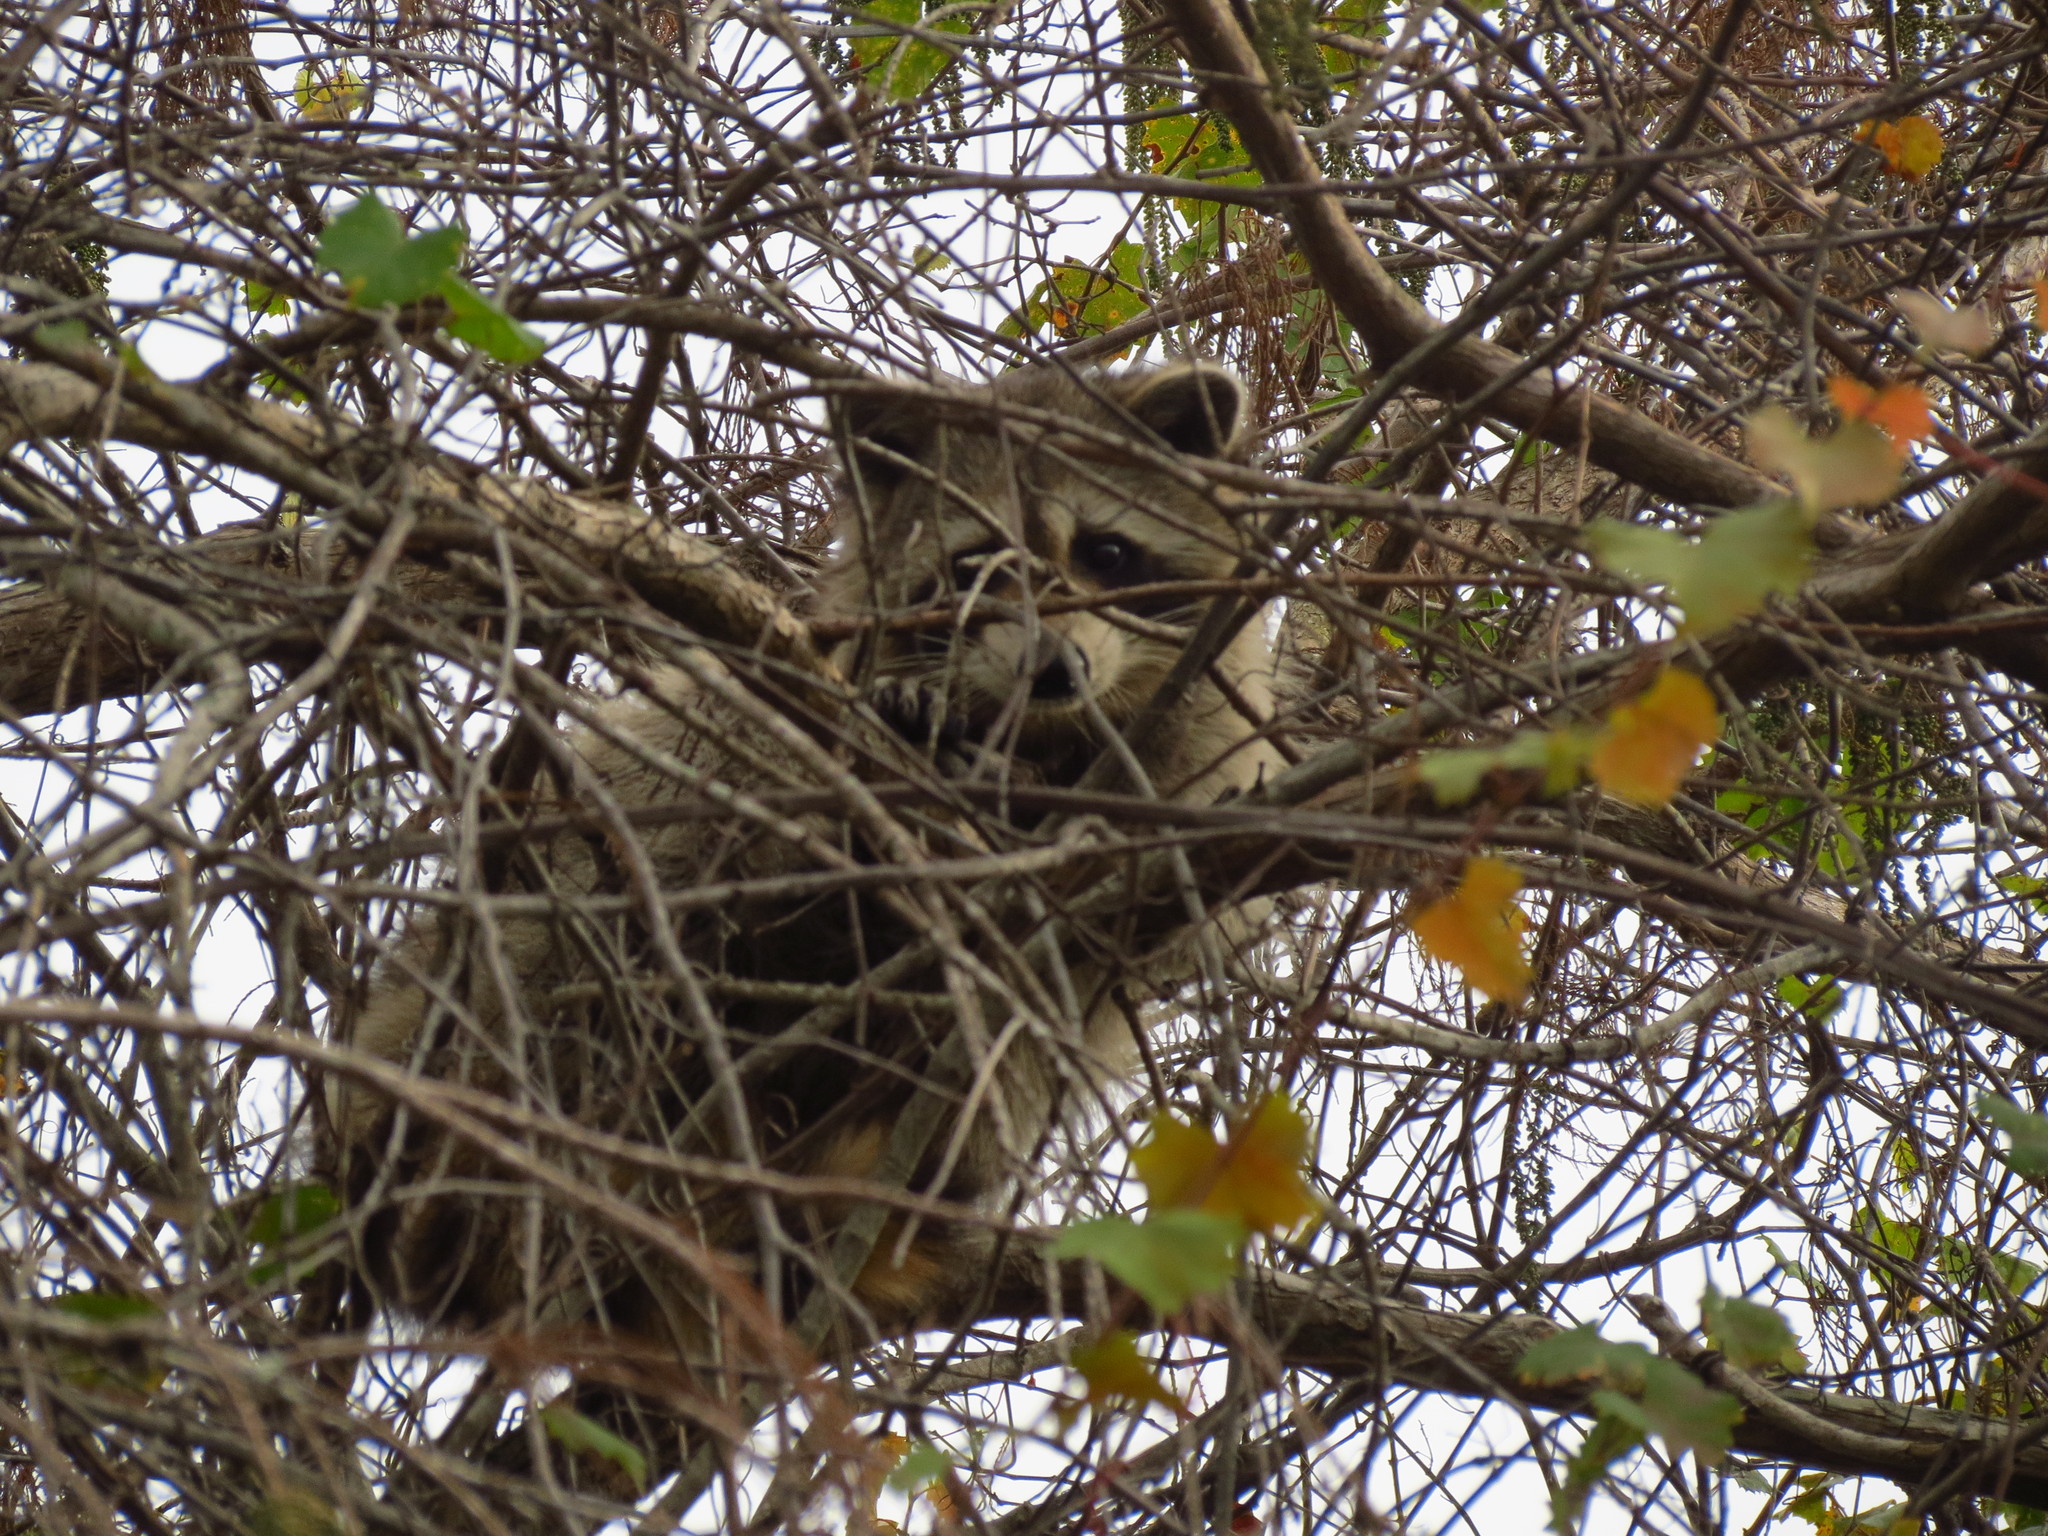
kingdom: Animalia
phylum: Chordata
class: Mammalia
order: Carnivora
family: Procyonidae
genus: Procyon
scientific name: Procyon lotor
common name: Raccoon
